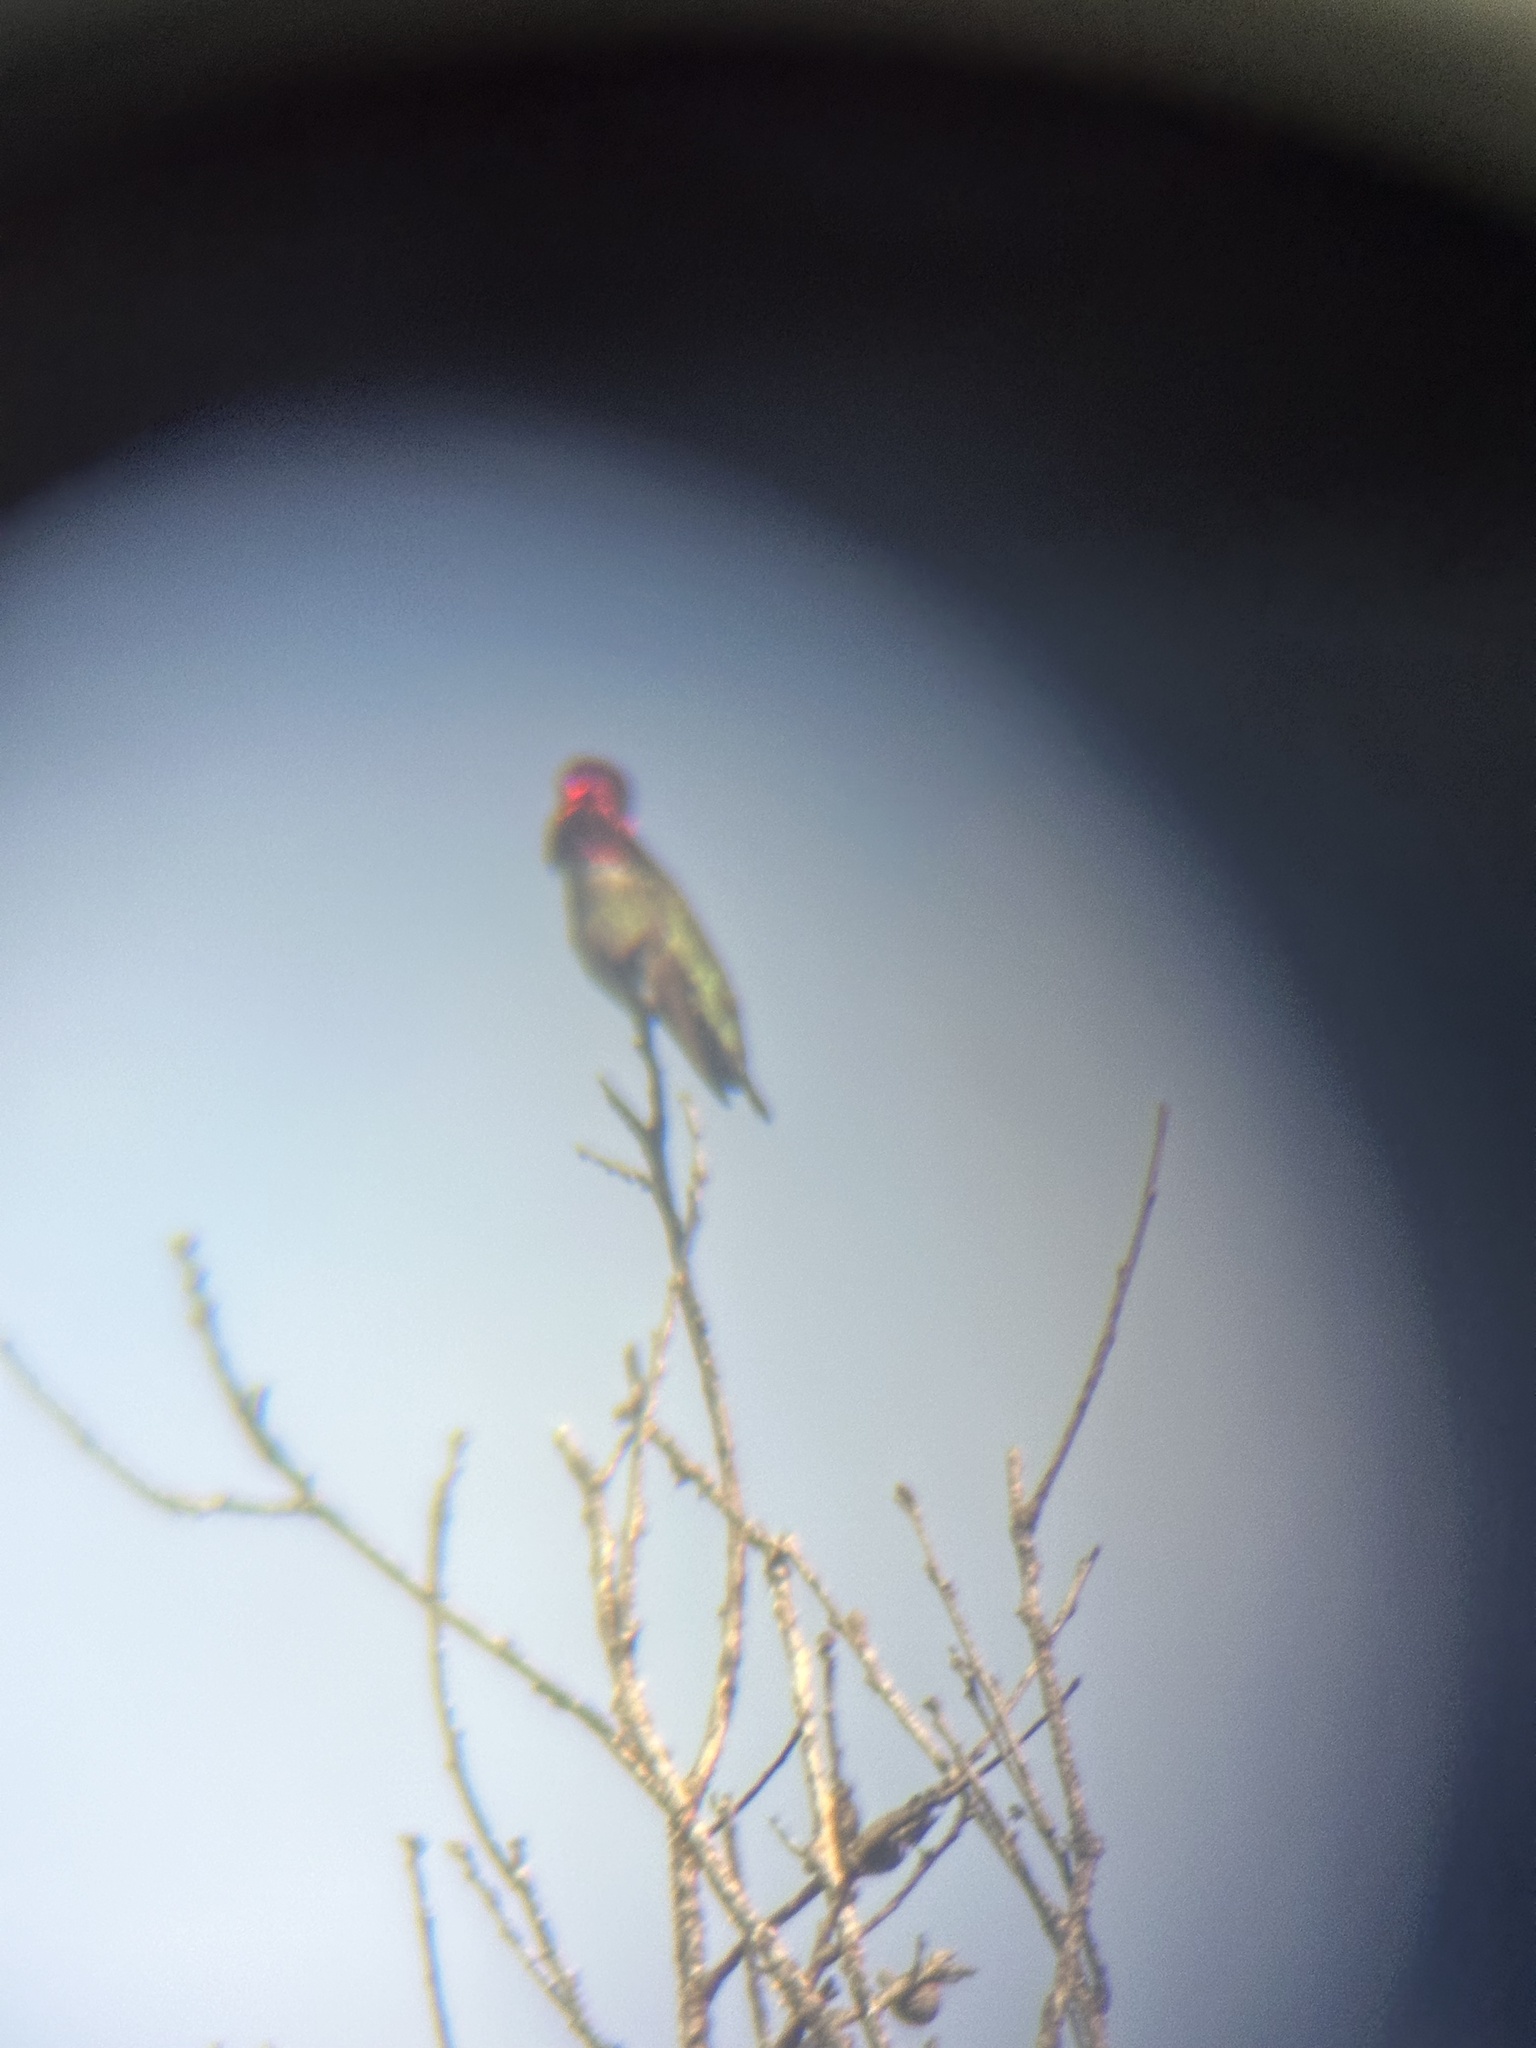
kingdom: Animalia
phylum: Chordata
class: Aves
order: Apodiformes
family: Trochilidae
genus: Calypte
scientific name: Calypte anna
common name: Anna's hummingbird
